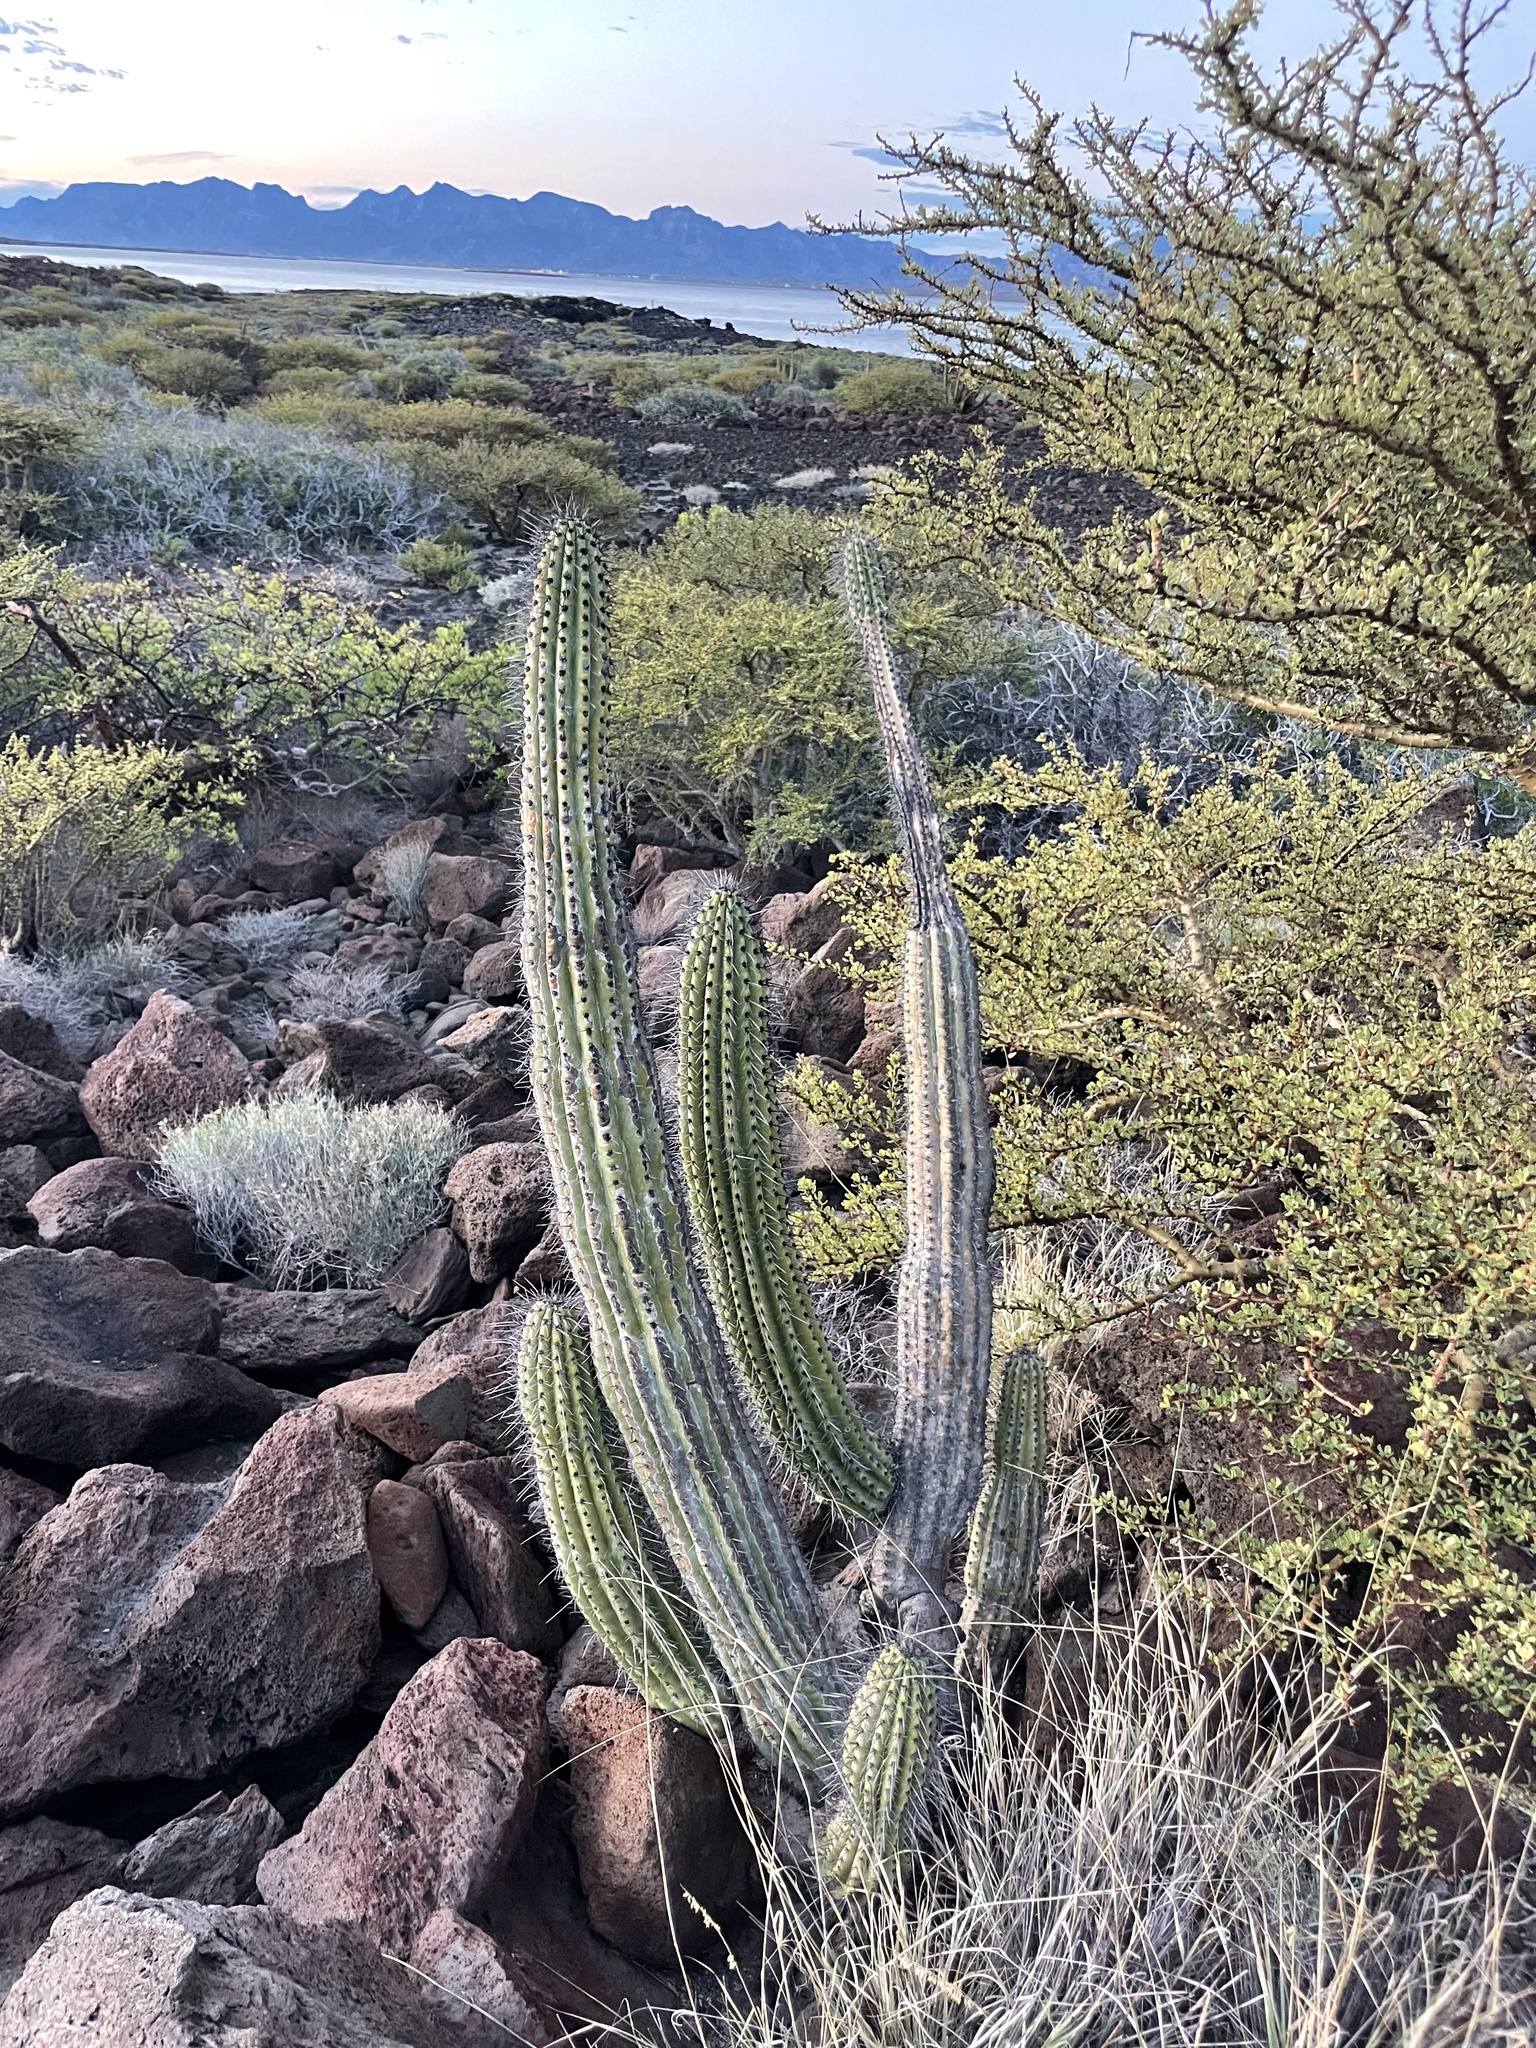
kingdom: Plantae
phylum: Tracheophyta
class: Magnoliopsida
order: Caryophyllales
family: Cactaceae
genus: Stenocereus
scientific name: Stenocereus thurberi
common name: Organ pipe cactus
